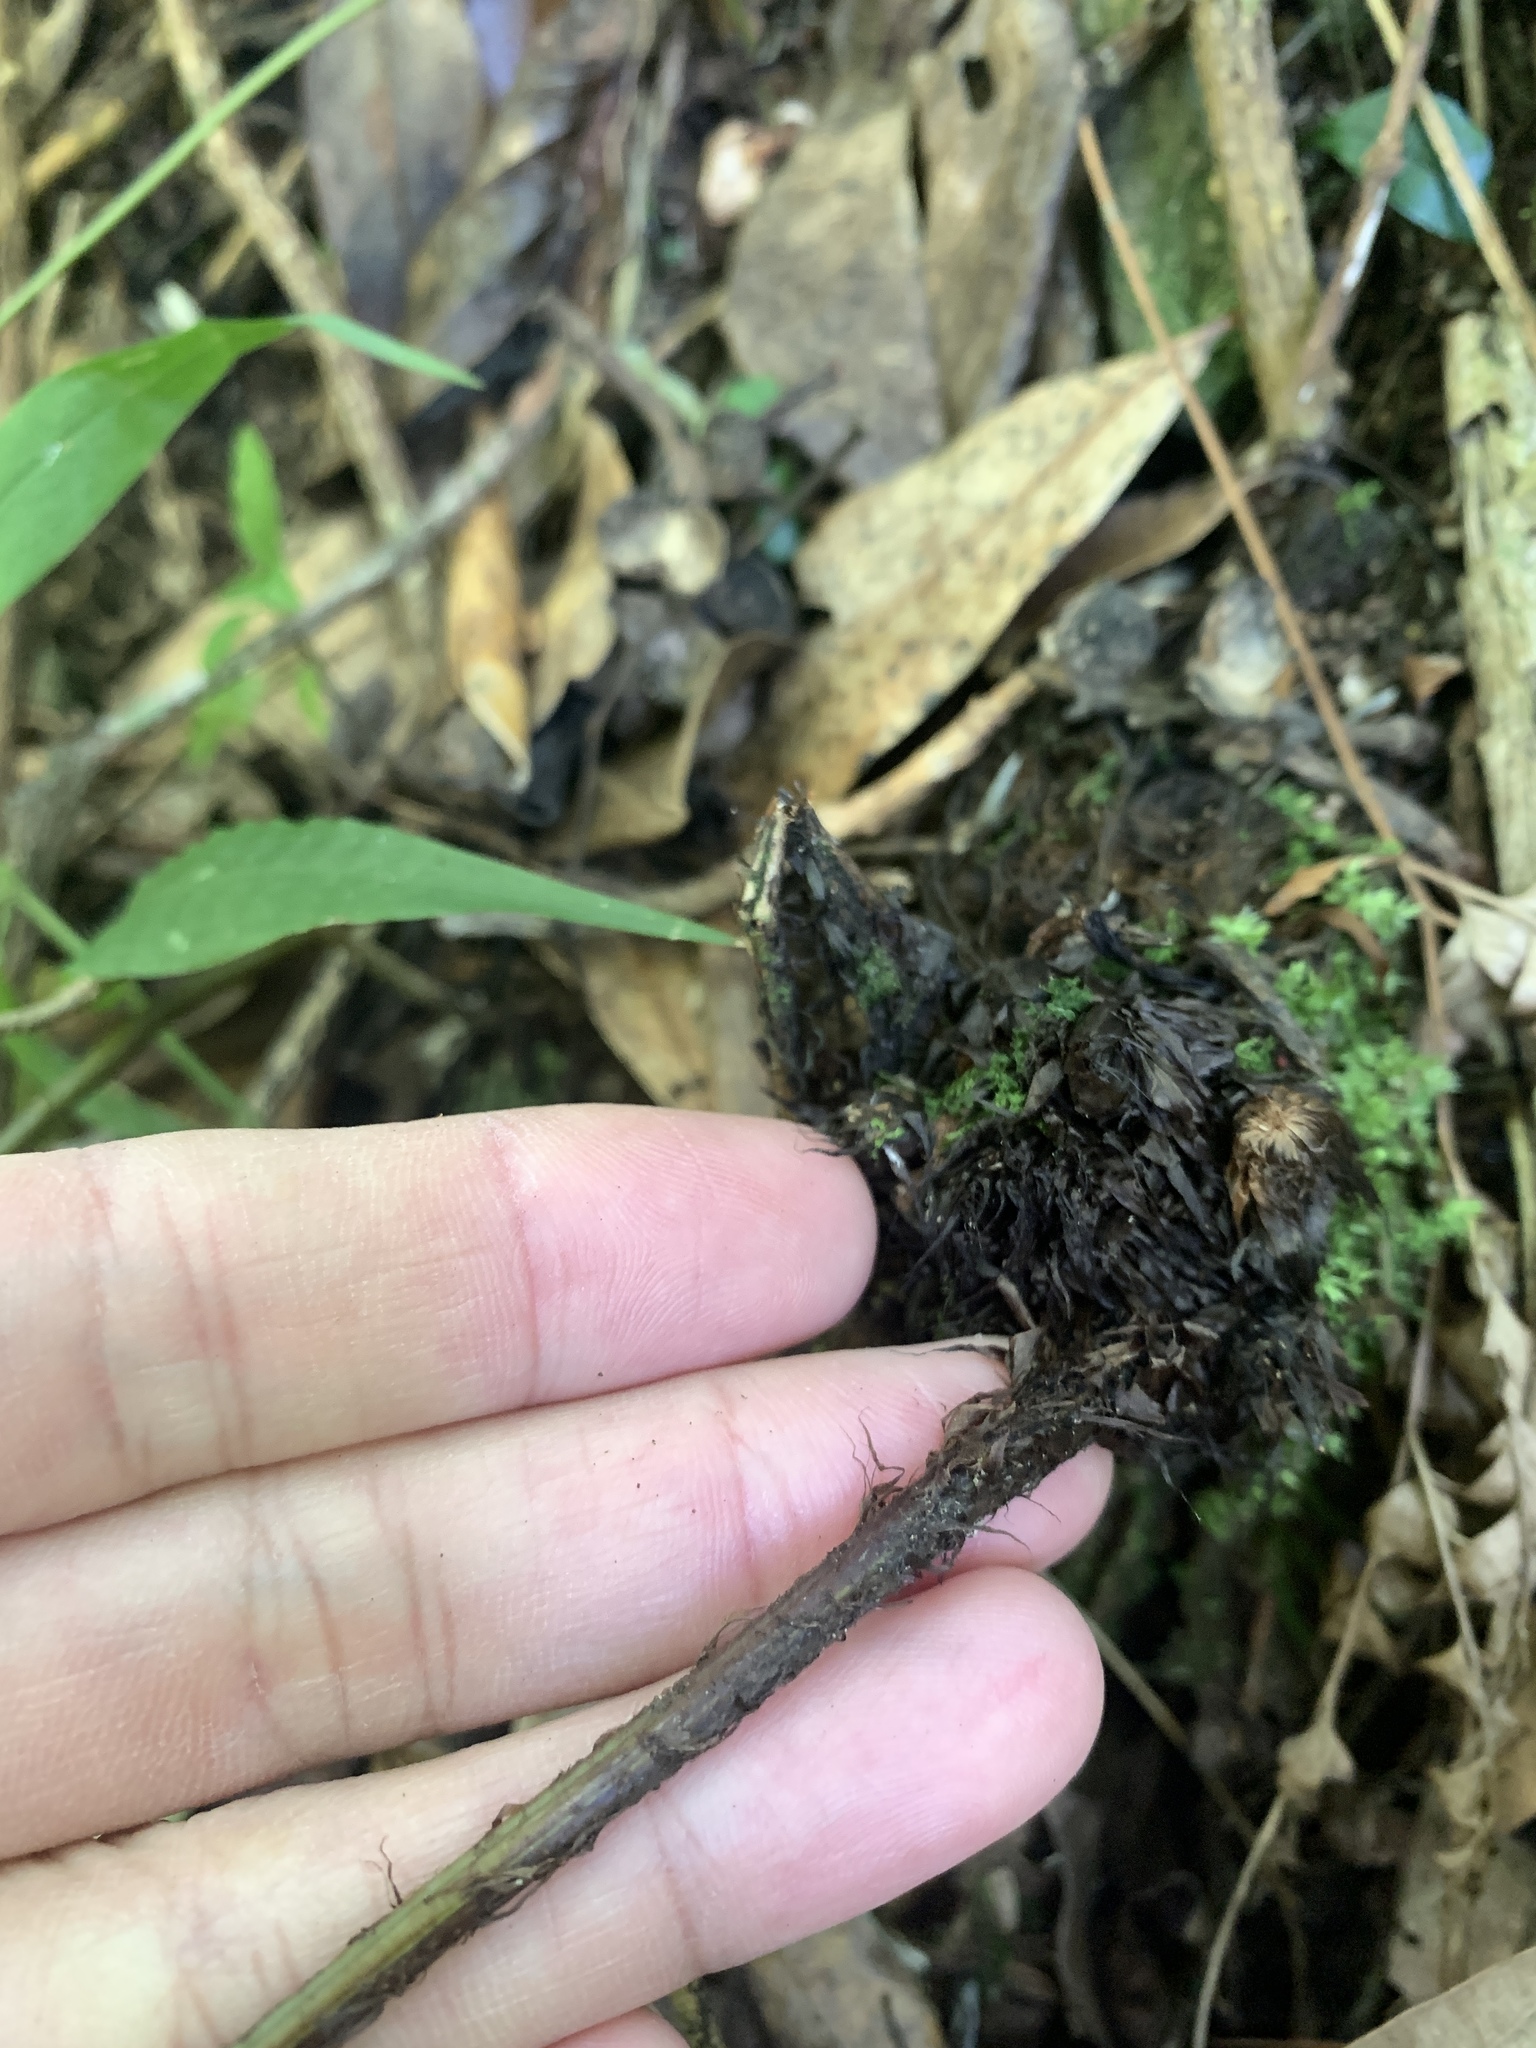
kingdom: Plantae
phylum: Tracheophyta
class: Polypodiopsida
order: Polypodiales
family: Dryopteridaceae
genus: Dryopteris
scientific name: Dryopteris scottii
